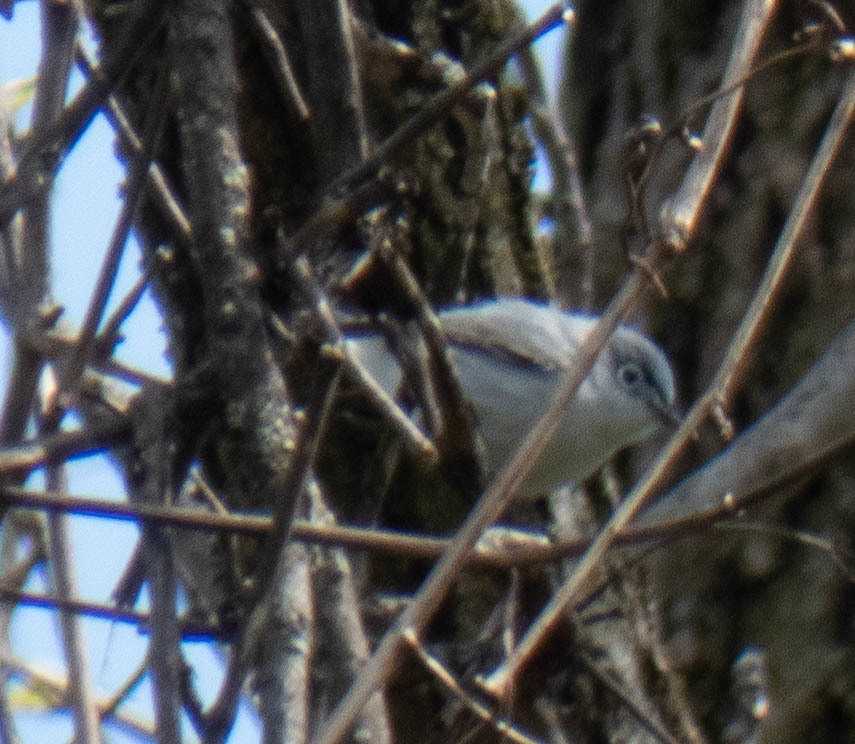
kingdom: Animalia
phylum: Chordata
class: Aves
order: Passeriformes
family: Polioptilidae
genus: Polioptila
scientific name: Polioptila caerulea
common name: Blue-gray gnatcatcher
